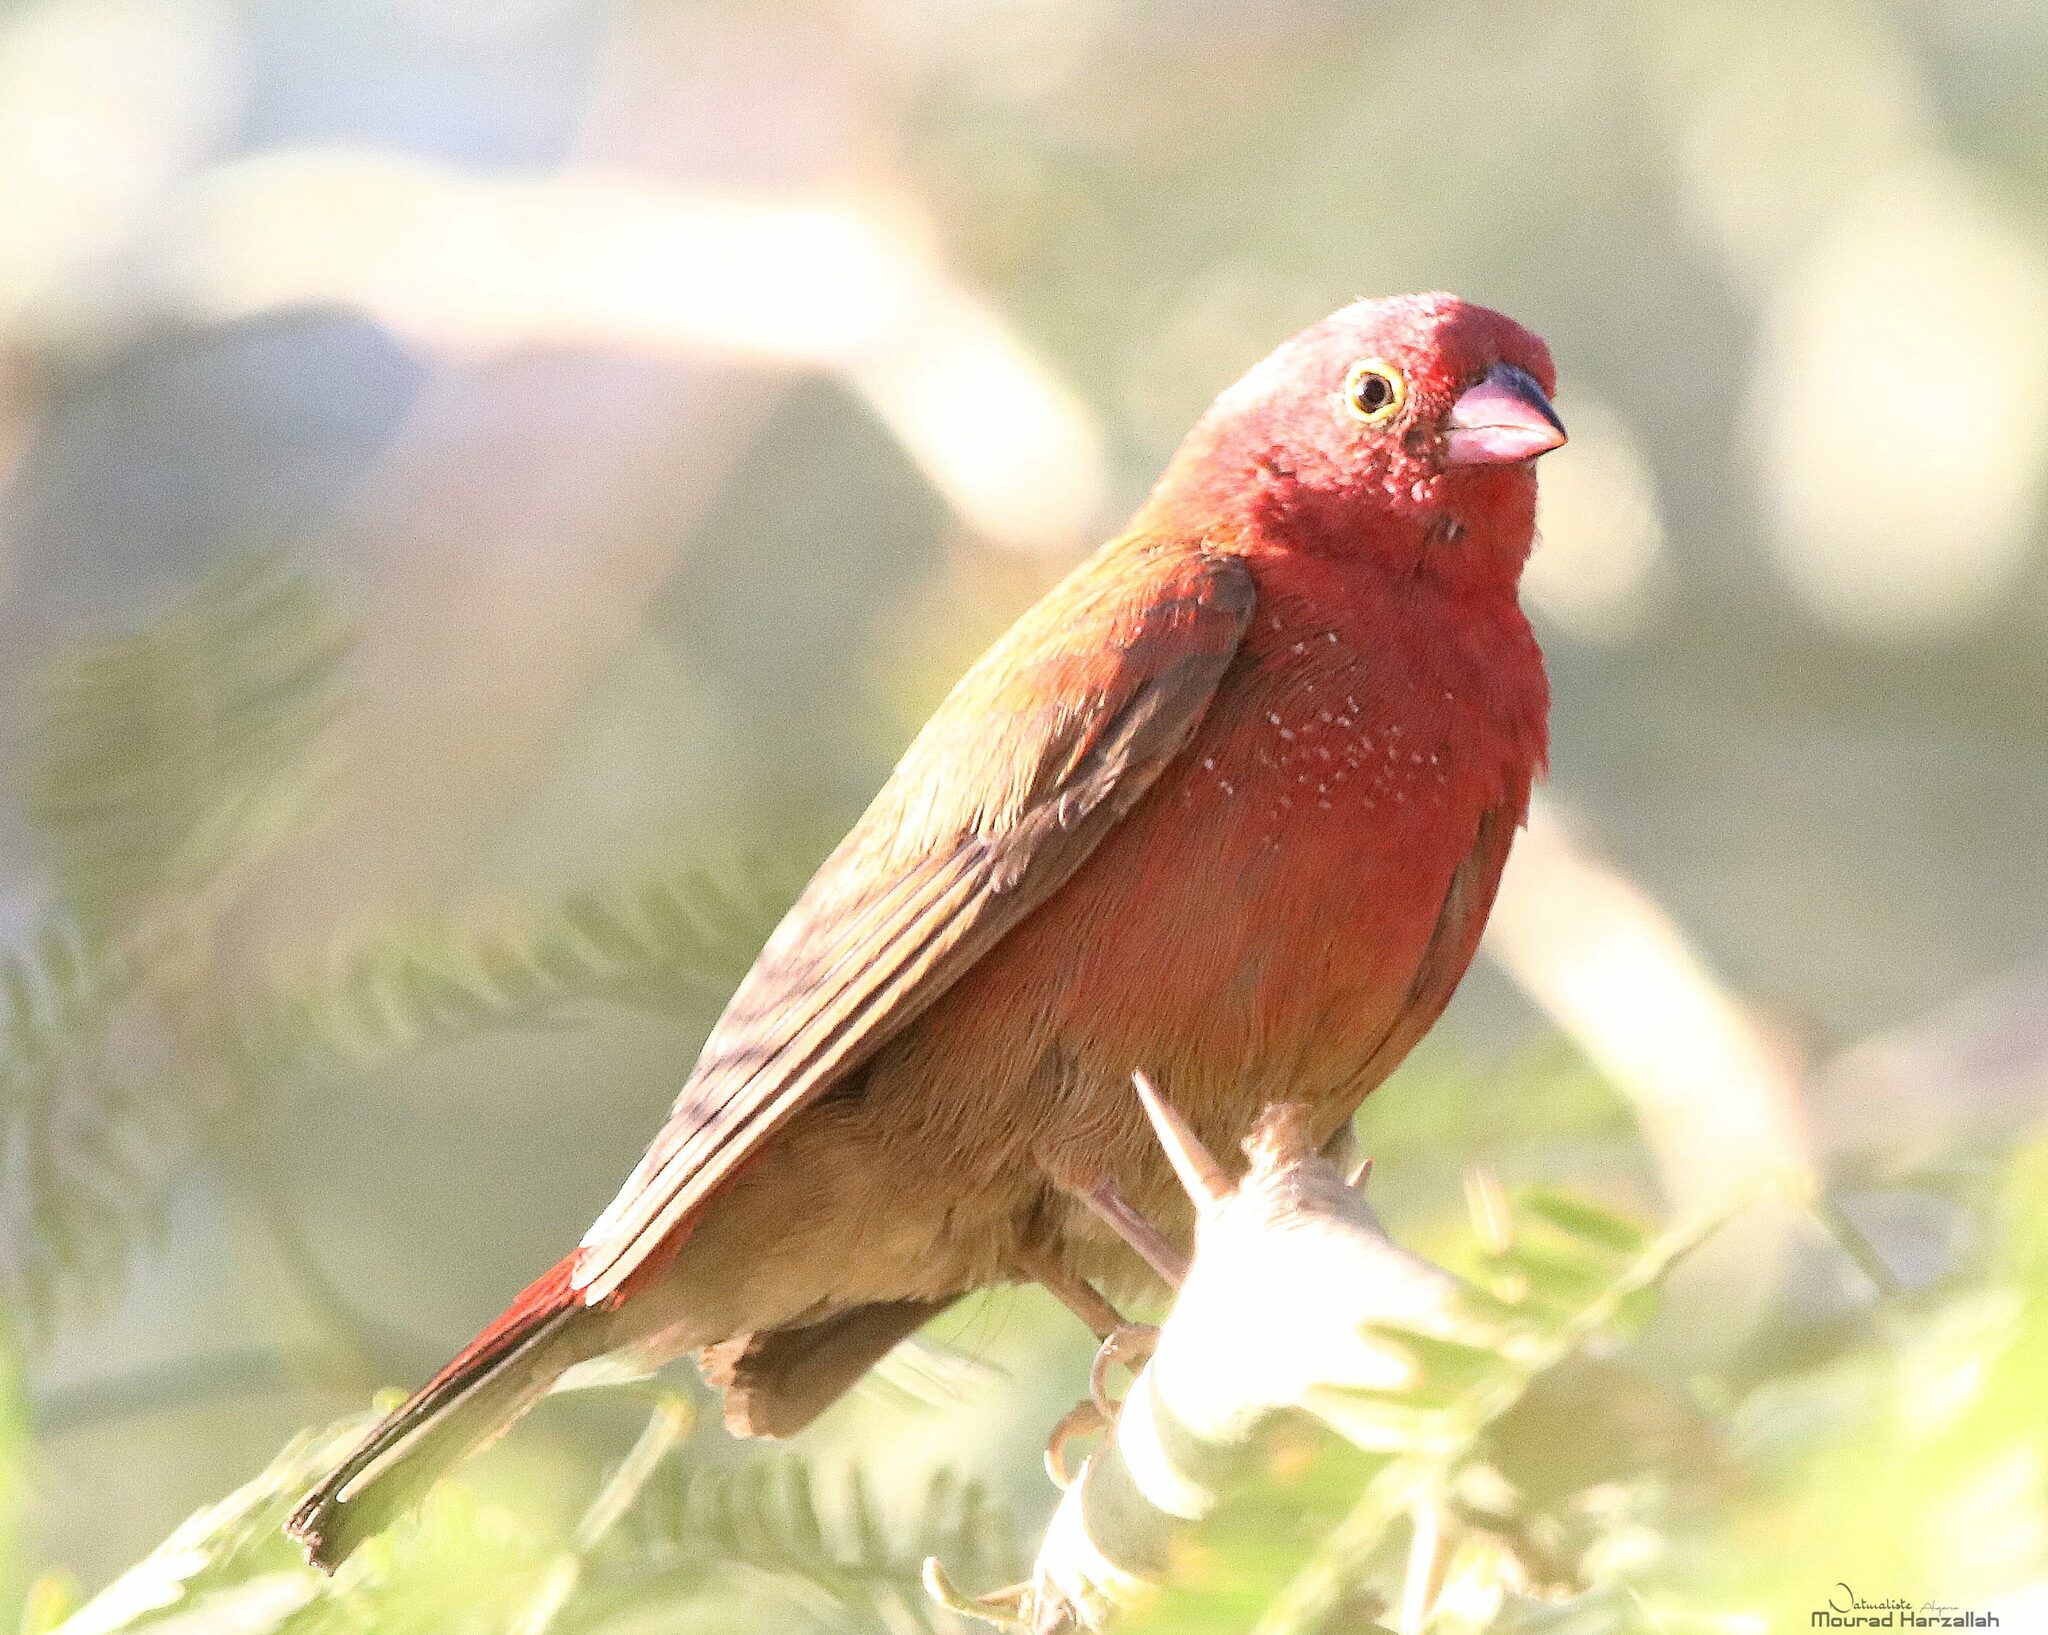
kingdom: Animalia
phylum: Chordata
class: Aves
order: Passeriformes
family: Estrildidae
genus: Lagonosticta
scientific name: Lagonosticta senegala
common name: Red-billed firefinch
